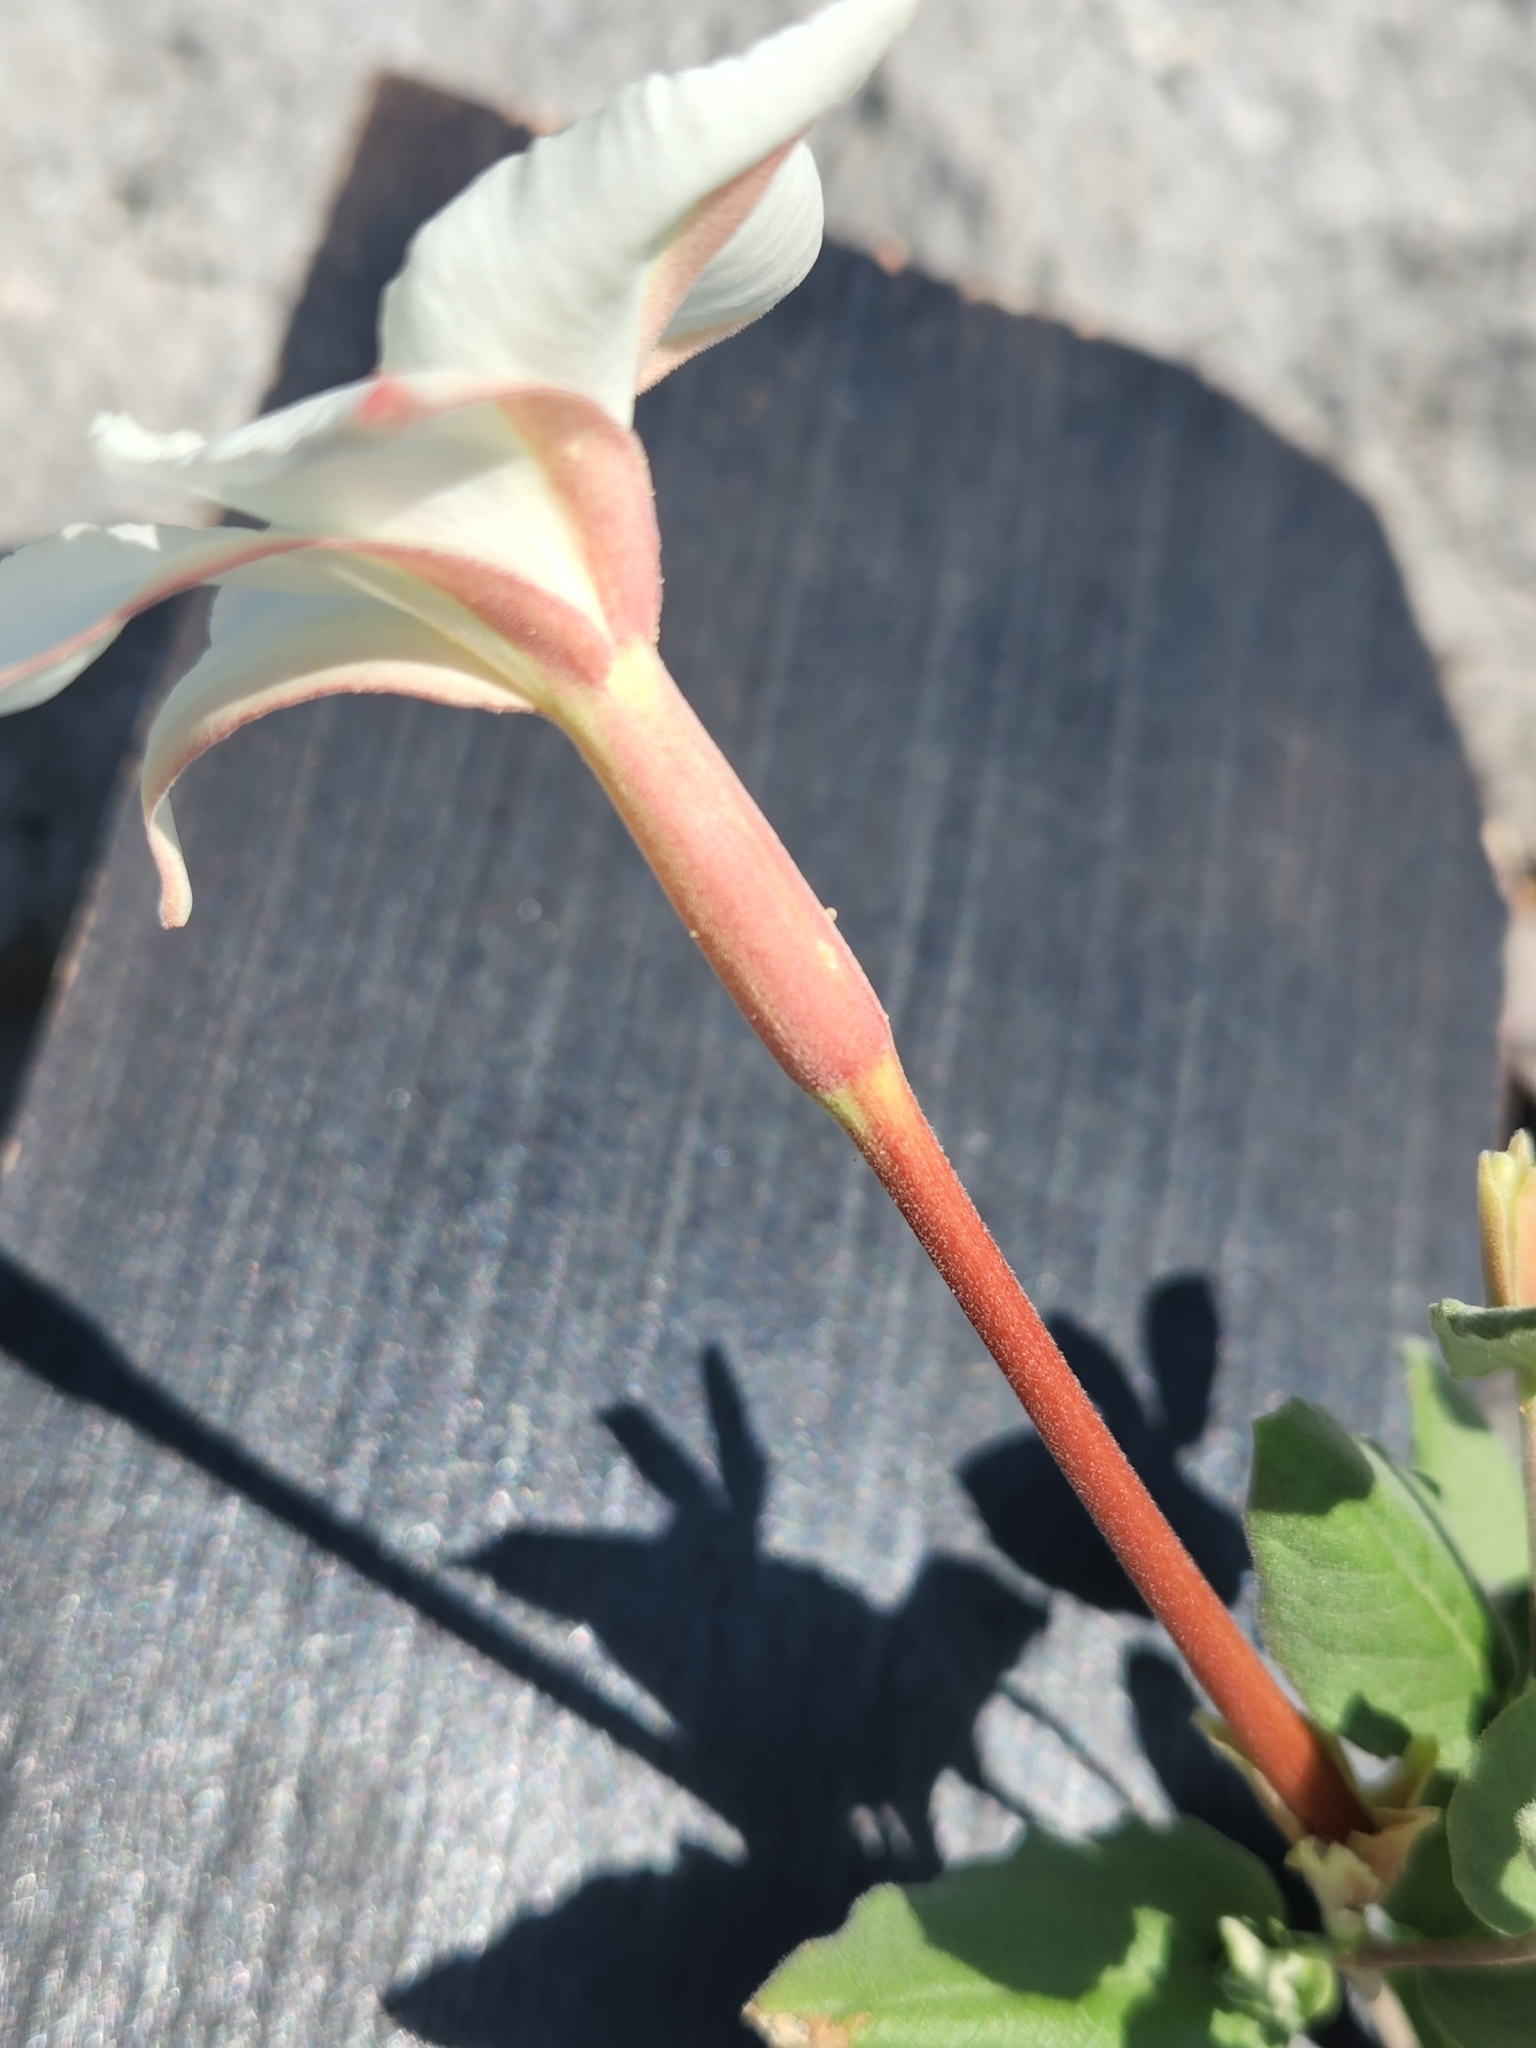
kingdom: Plantae
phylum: Tracheophyta
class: Magnoliopsida
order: Gentianales
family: Apocynaceae
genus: Mandevilla
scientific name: Mandevilla macrosiphon
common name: Plateau rocktrumpet
